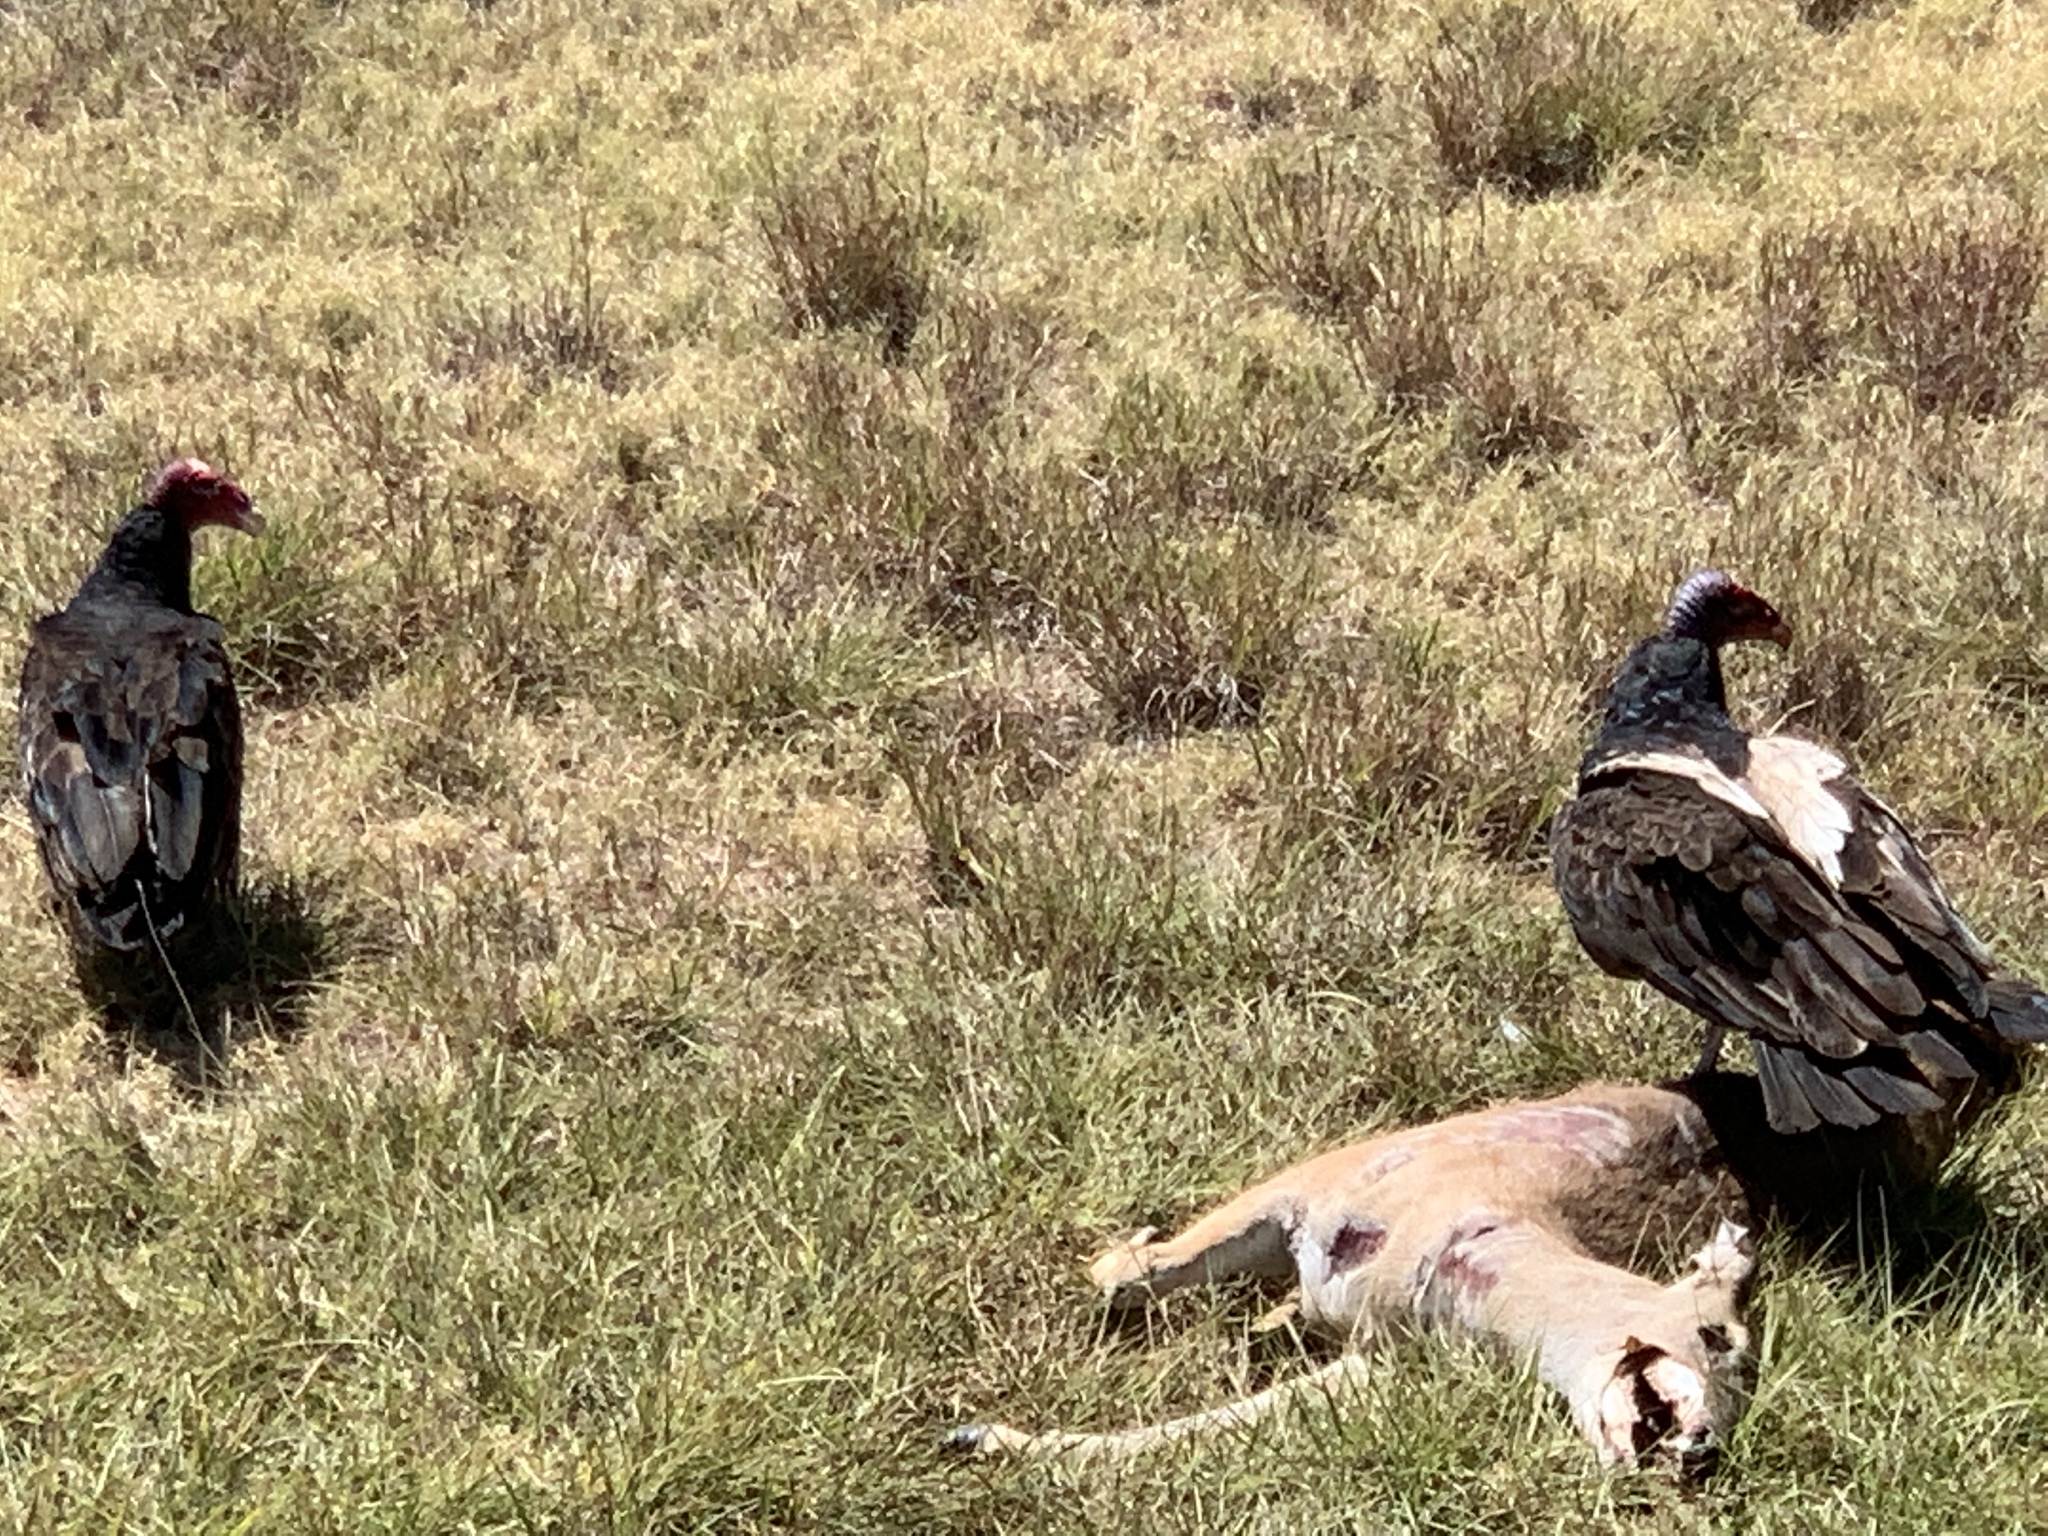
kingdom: Animalia
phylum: Chordata
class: Aves
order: Accipitriformes
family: Cathartidae
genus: Cathartes
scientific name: Cathartes aura
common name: Turkey vulture
